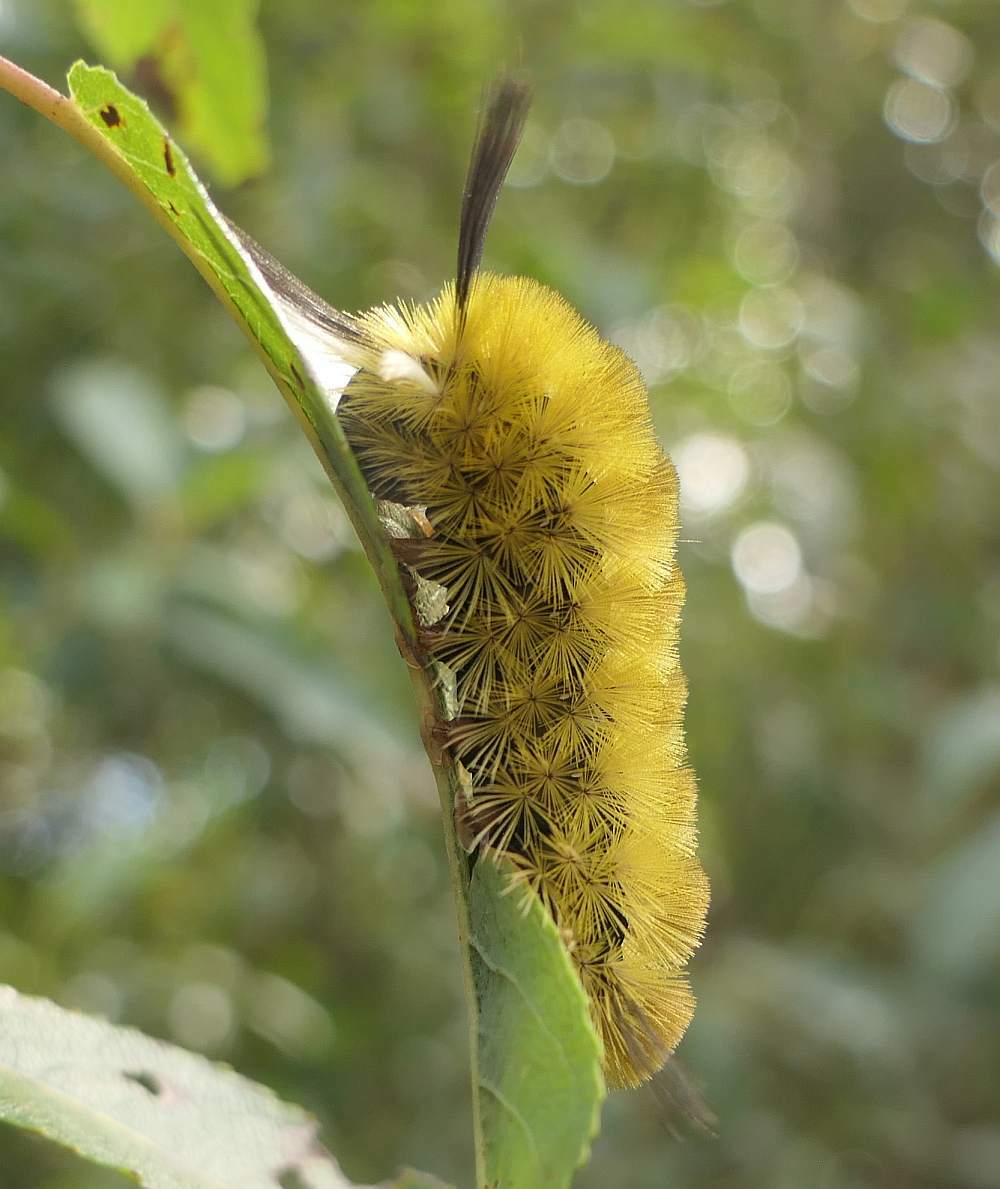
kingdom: Animalia
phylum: Arthropoda
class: Insecta
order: Lepidoptera
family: Erebidae
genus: Halysidota
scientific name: Halysidota tessellaris
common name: Banded tussock moth
